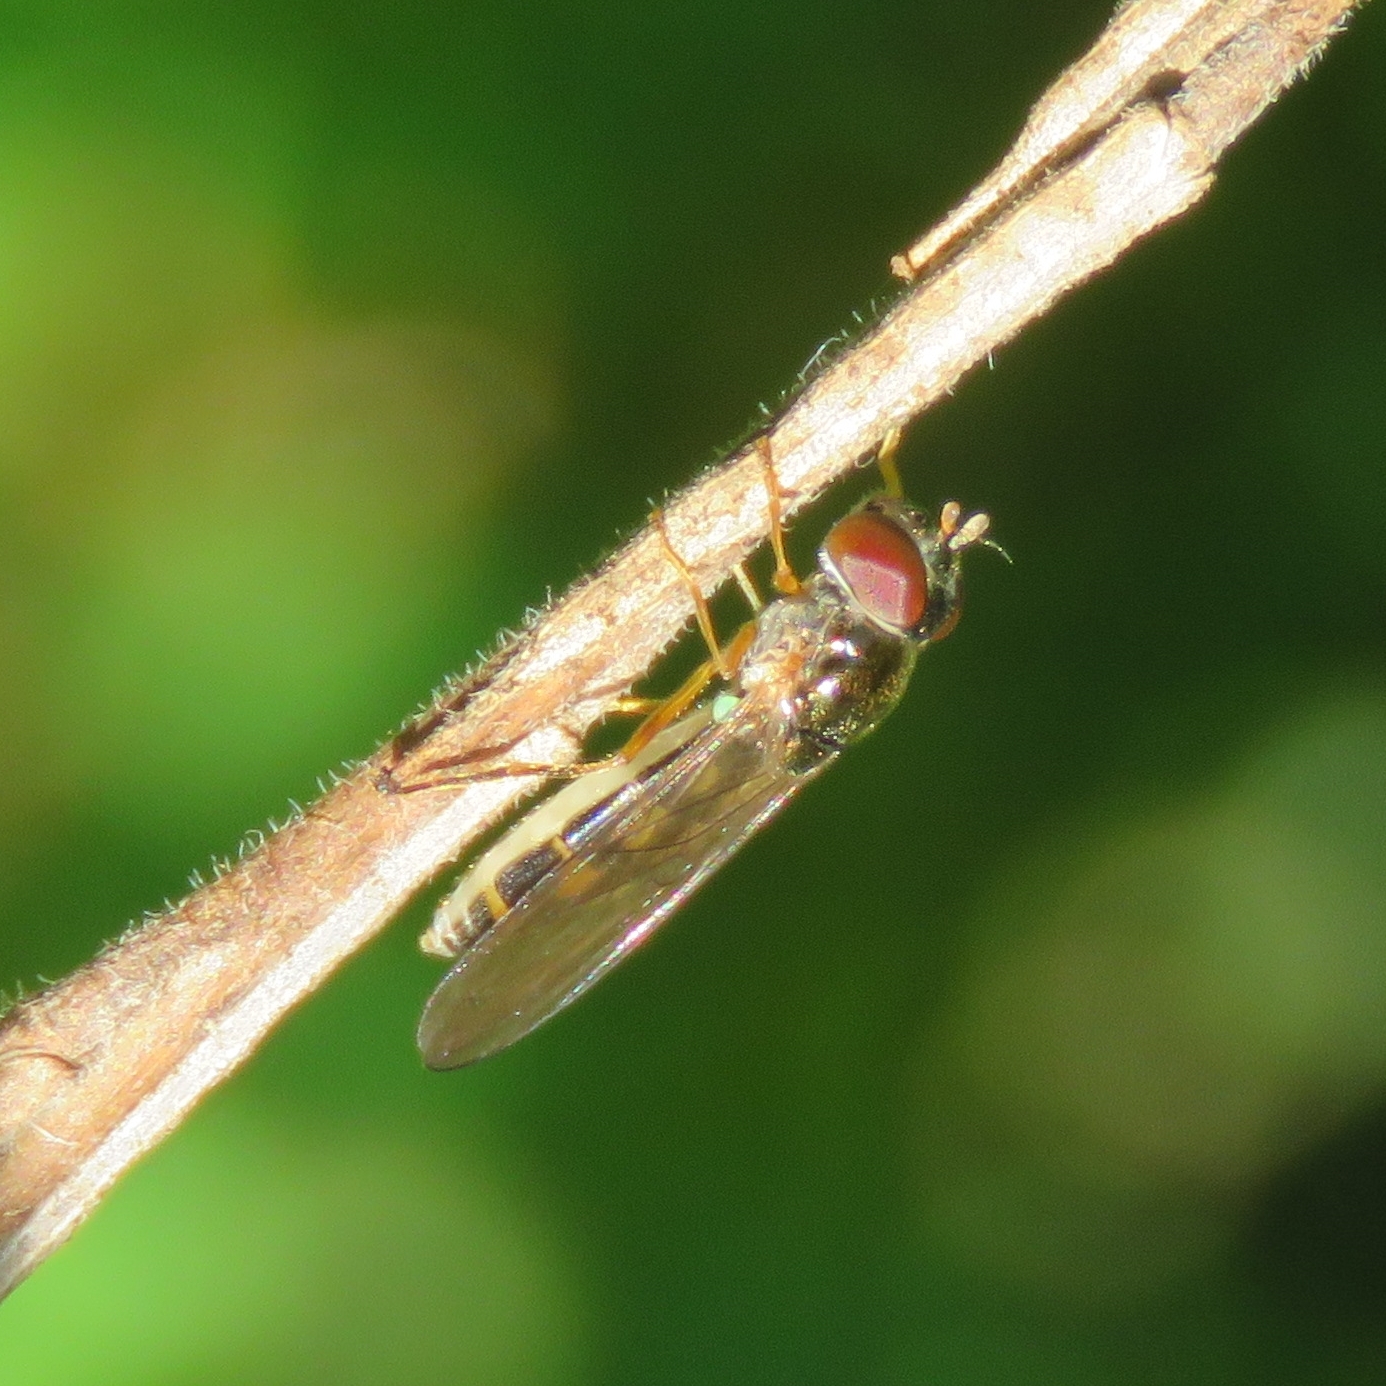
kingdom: Animalia
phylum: Arthropoda
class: Insecta
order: Diptera
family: Syrphidae
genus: Melanostoma
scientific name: Melanostoma scalare
